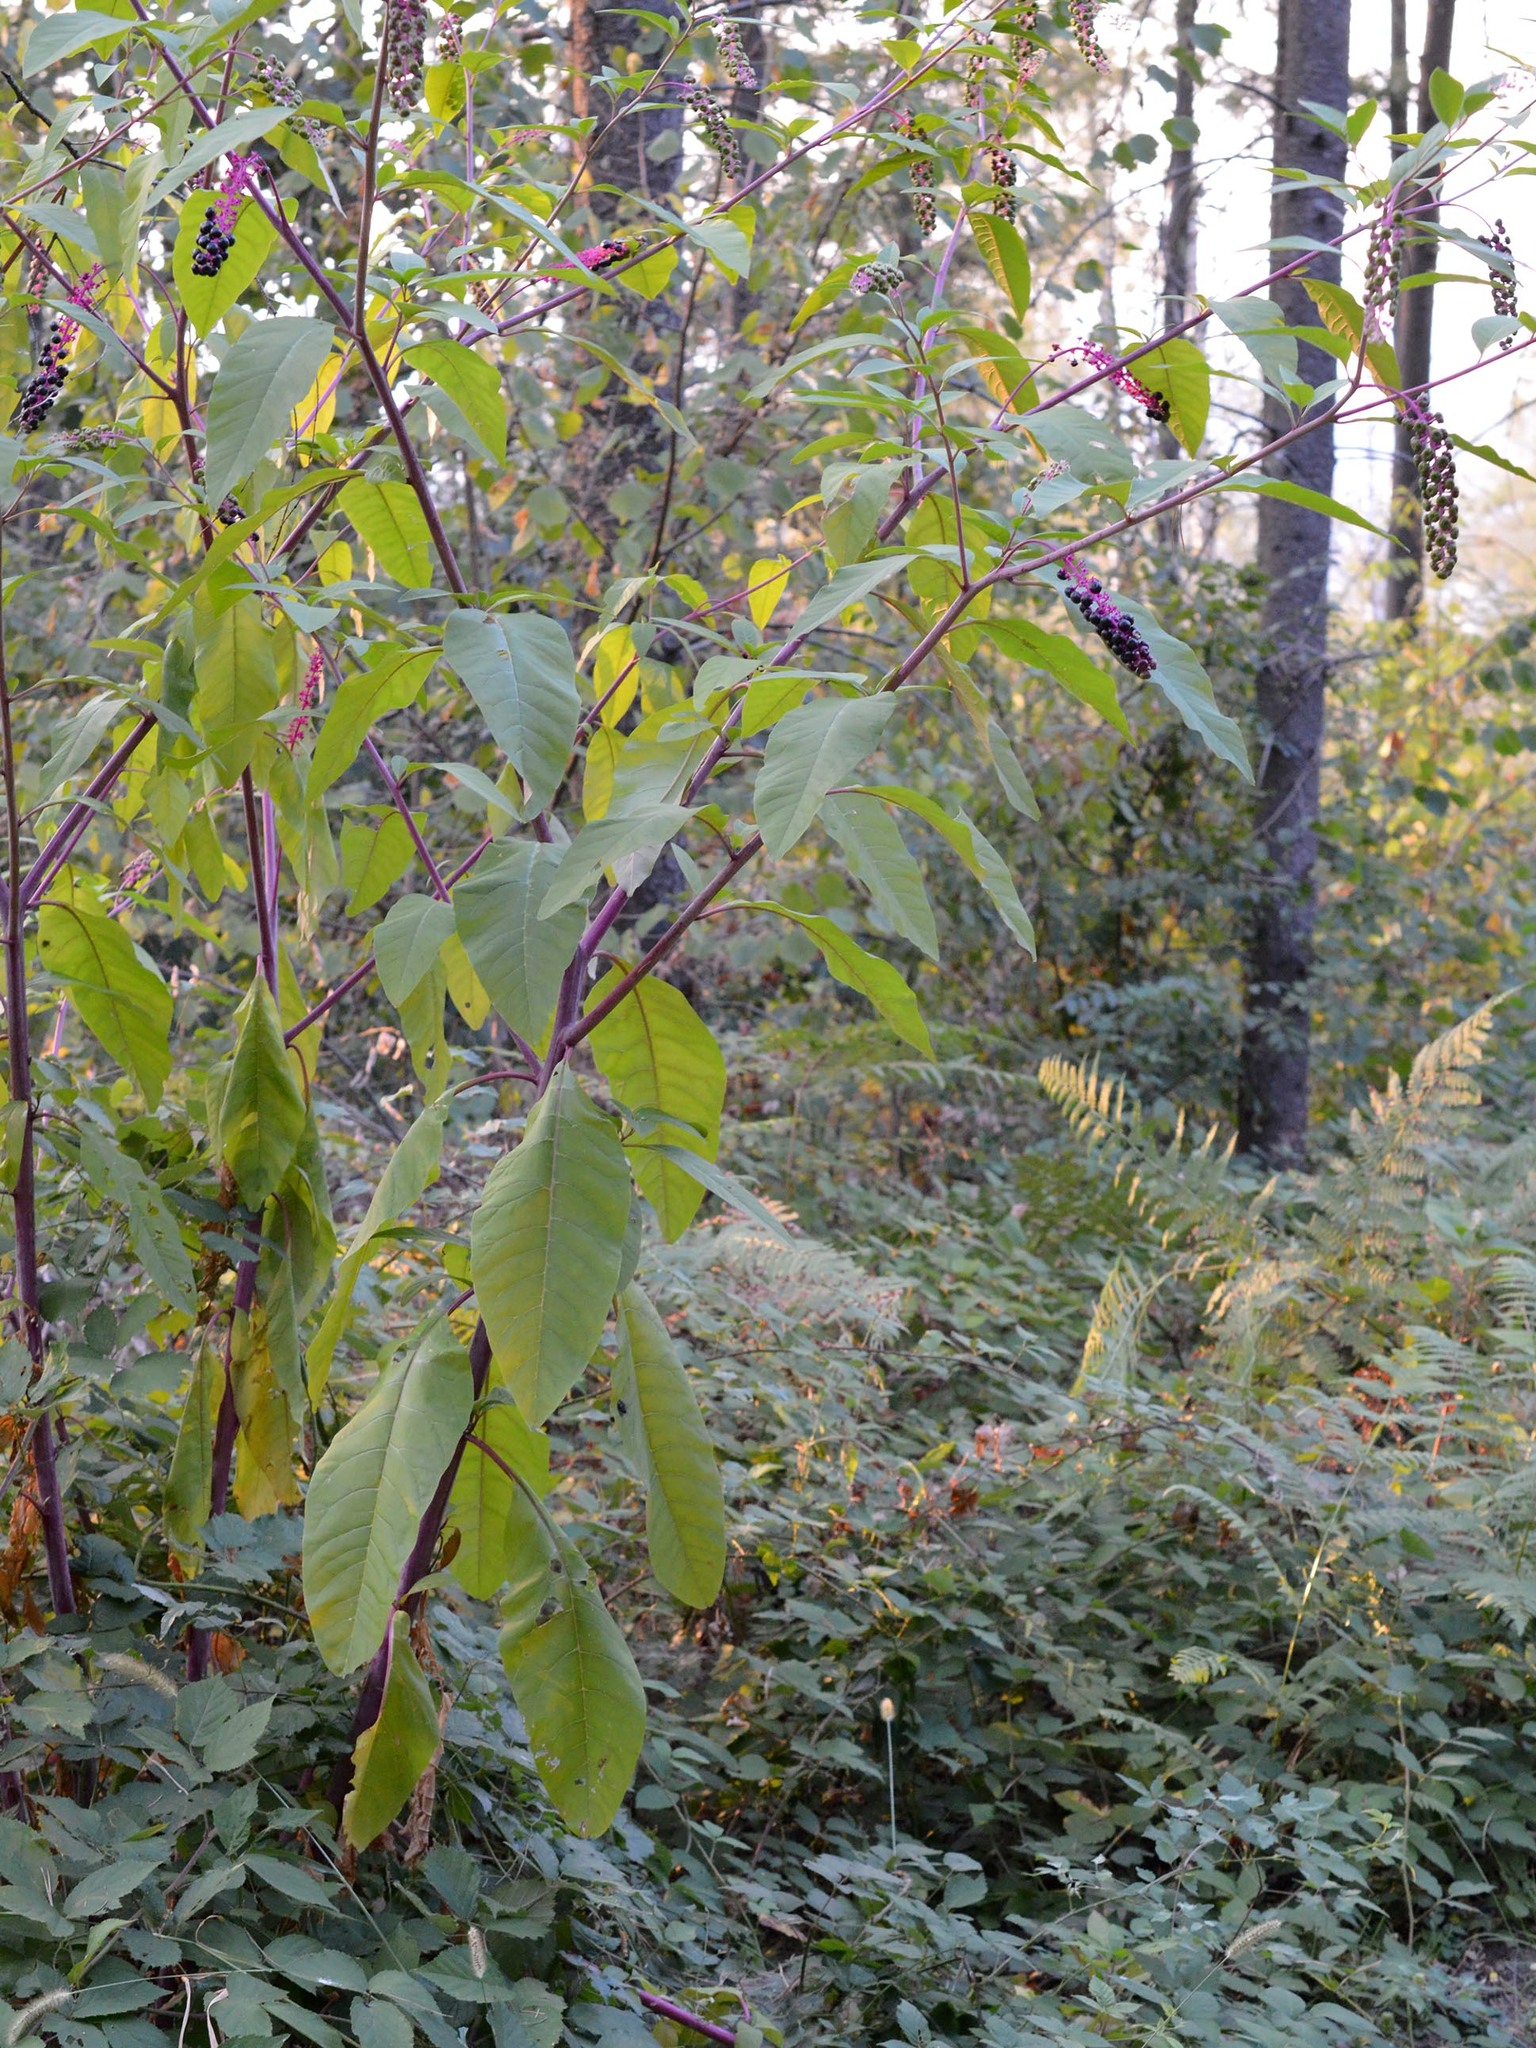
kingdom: Plantae
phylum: Tracheophyta
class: Magnoliopsida
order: Caryophyllales
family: Phytolaccaceae
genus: Phytolacca
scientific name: Phytolacca americana
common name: American pokeweed
